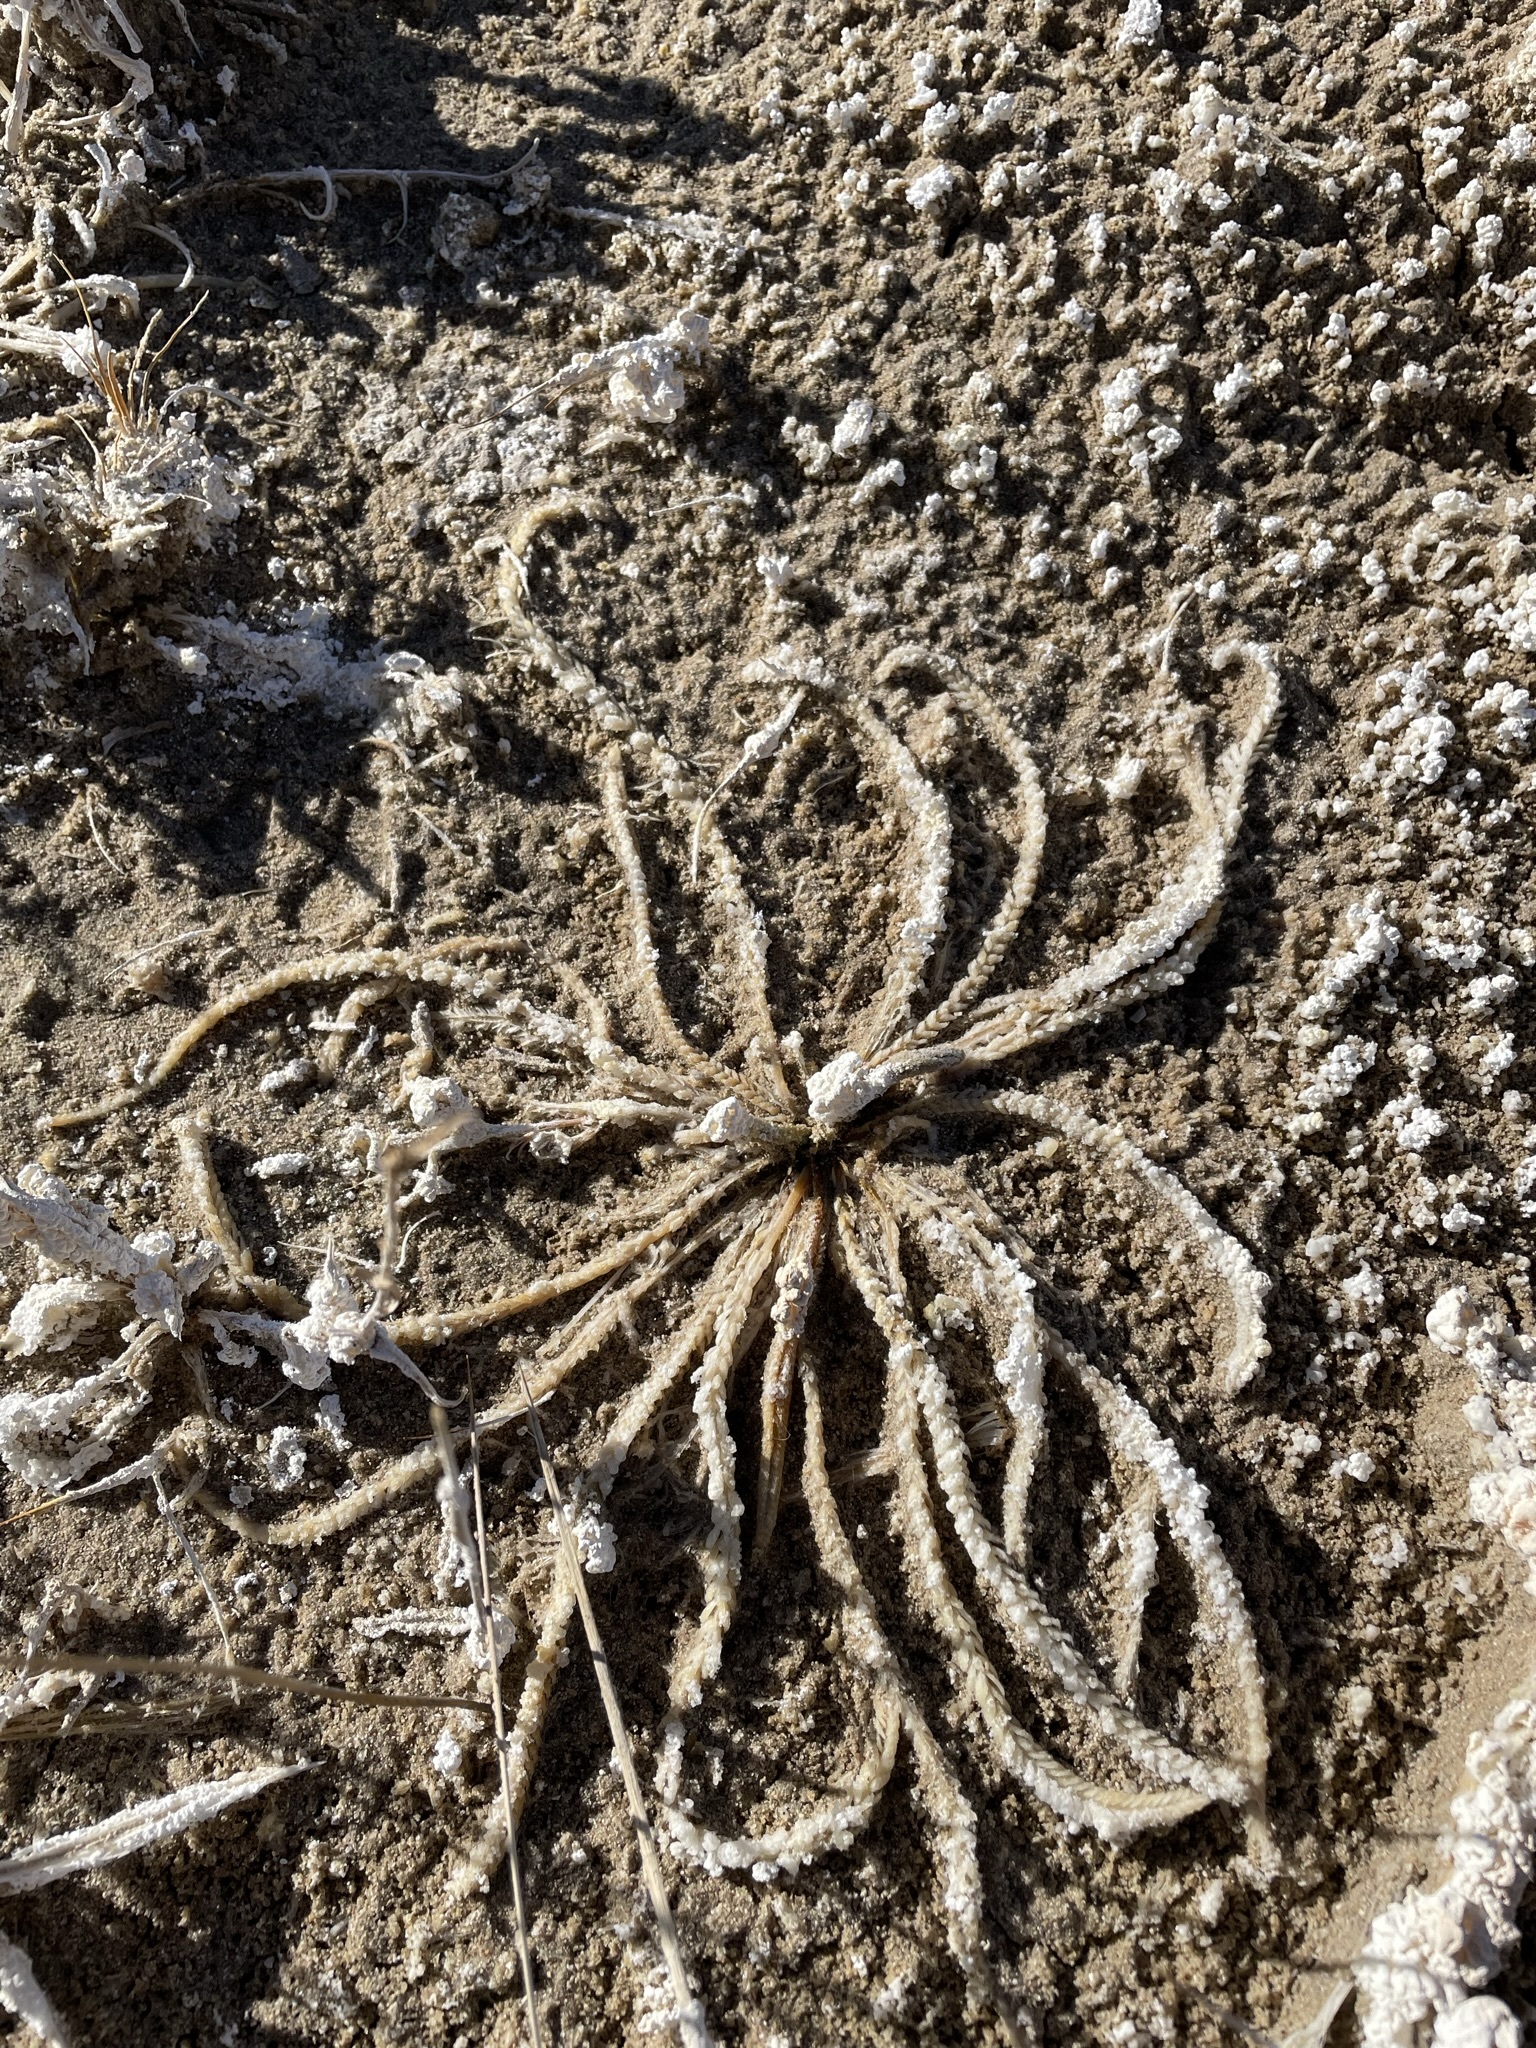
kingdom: Plantae
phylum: Tracheophyta
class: Magnoliopsida
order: Rosales
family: Rosaceae
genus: Potentilla
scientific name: Potentilla kingii
